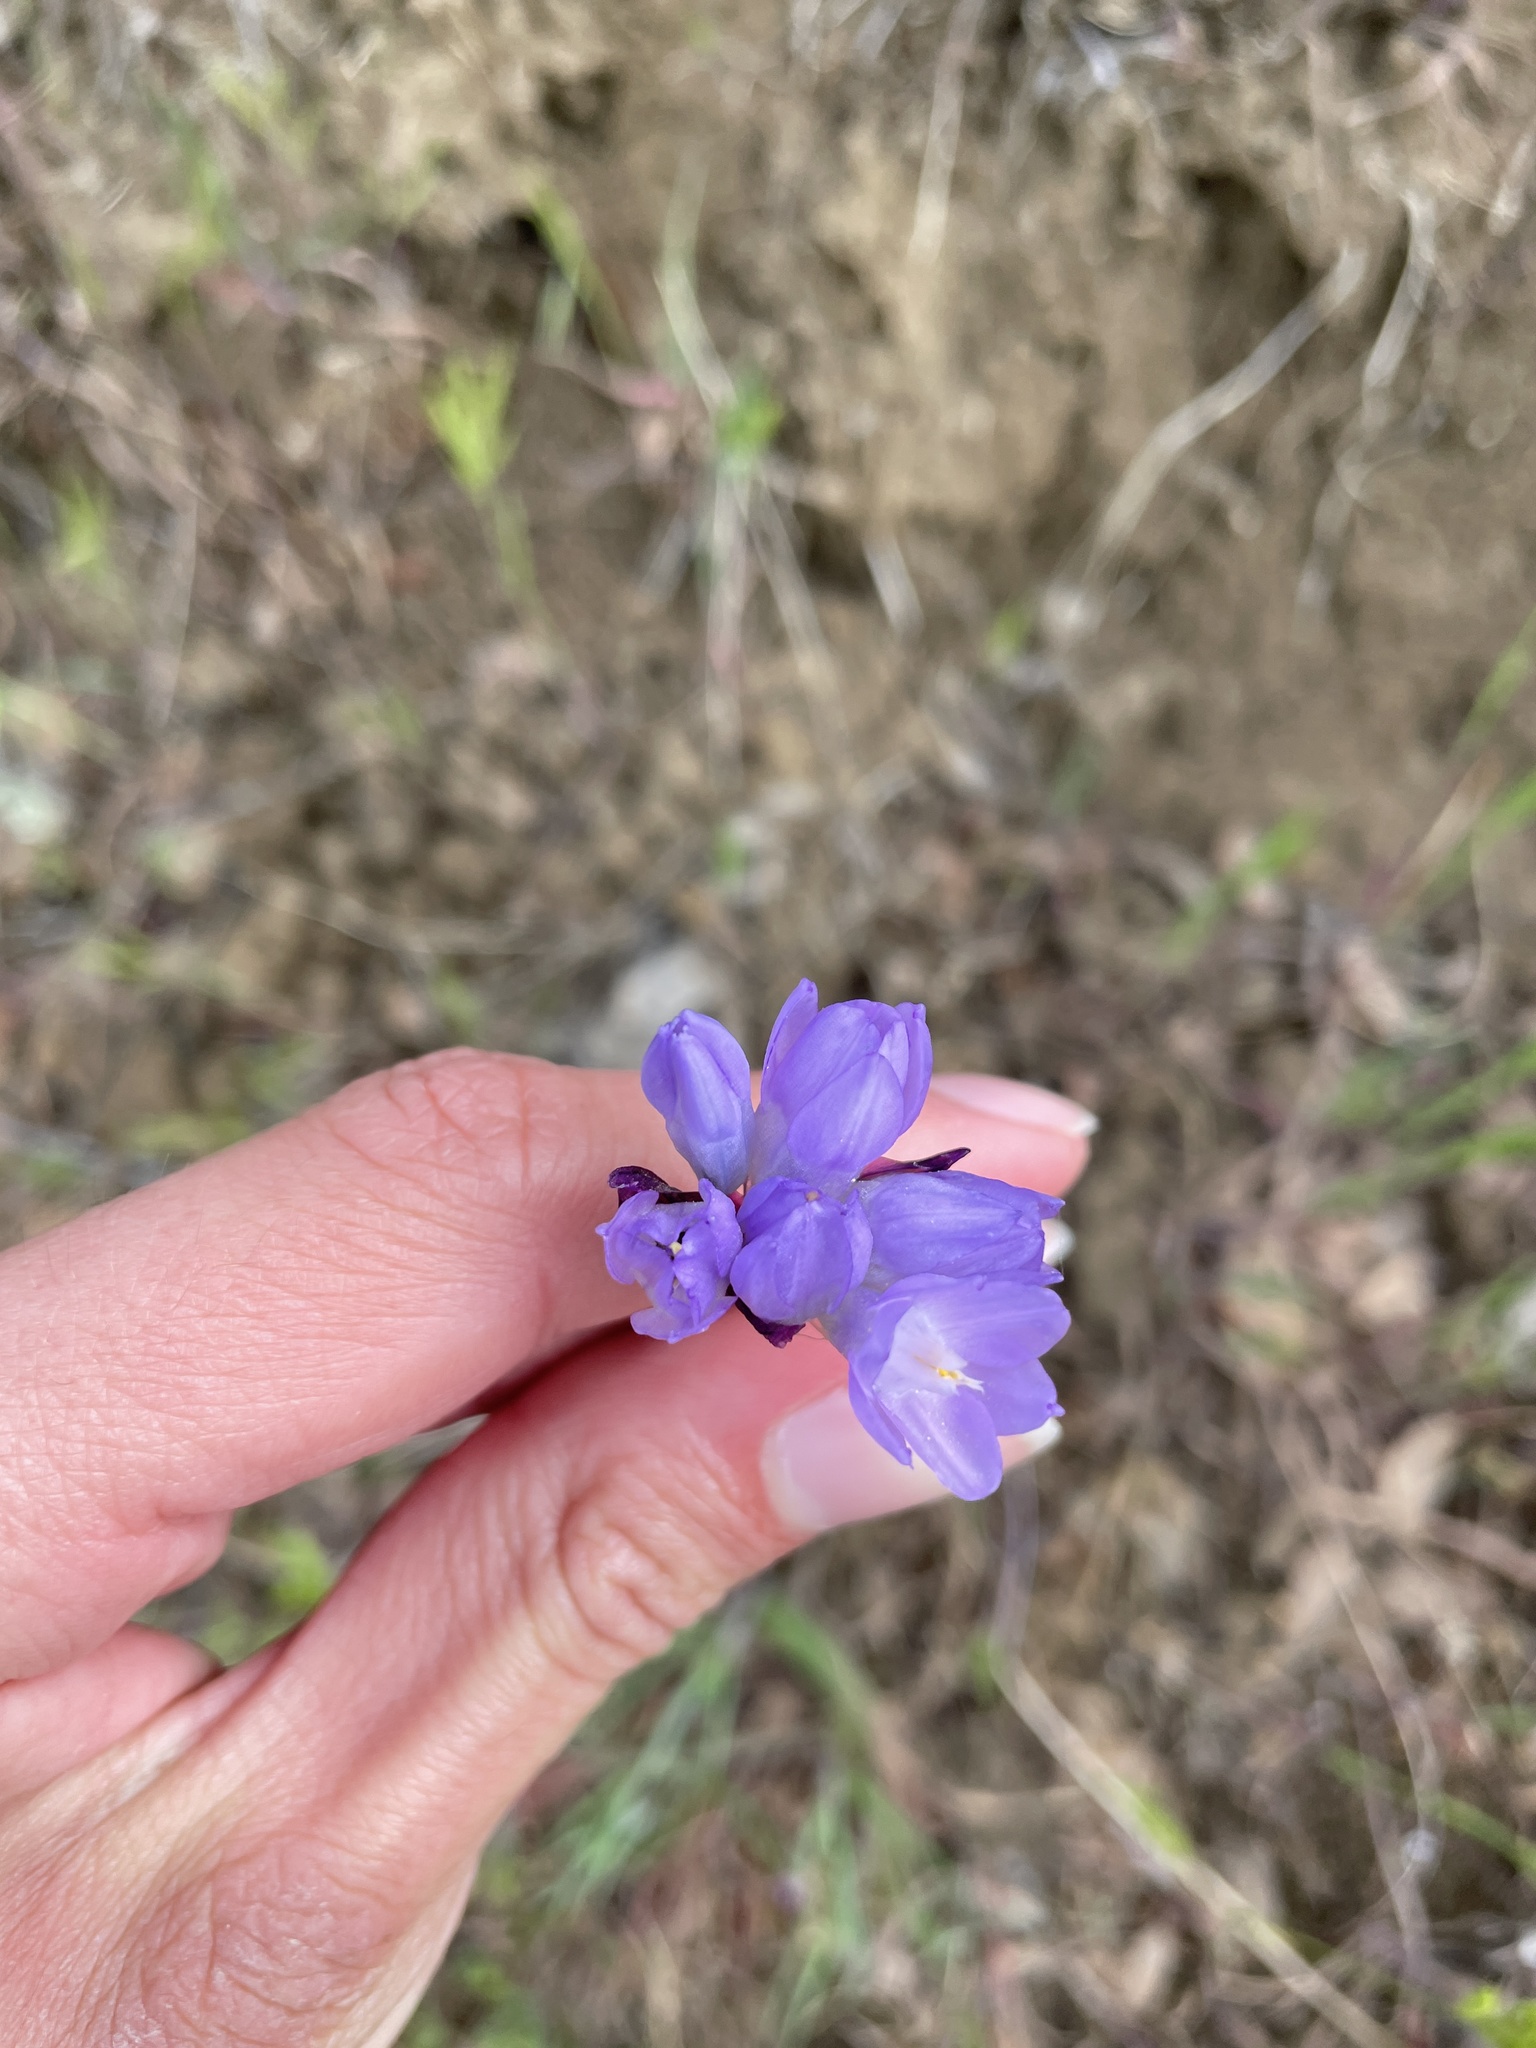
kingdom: Plantae
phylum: Tracheophyta
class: Liliopsida
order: Asparagales
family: Asparagaceae
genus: Dipterostemon
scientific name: Dipterostemon capitatus
